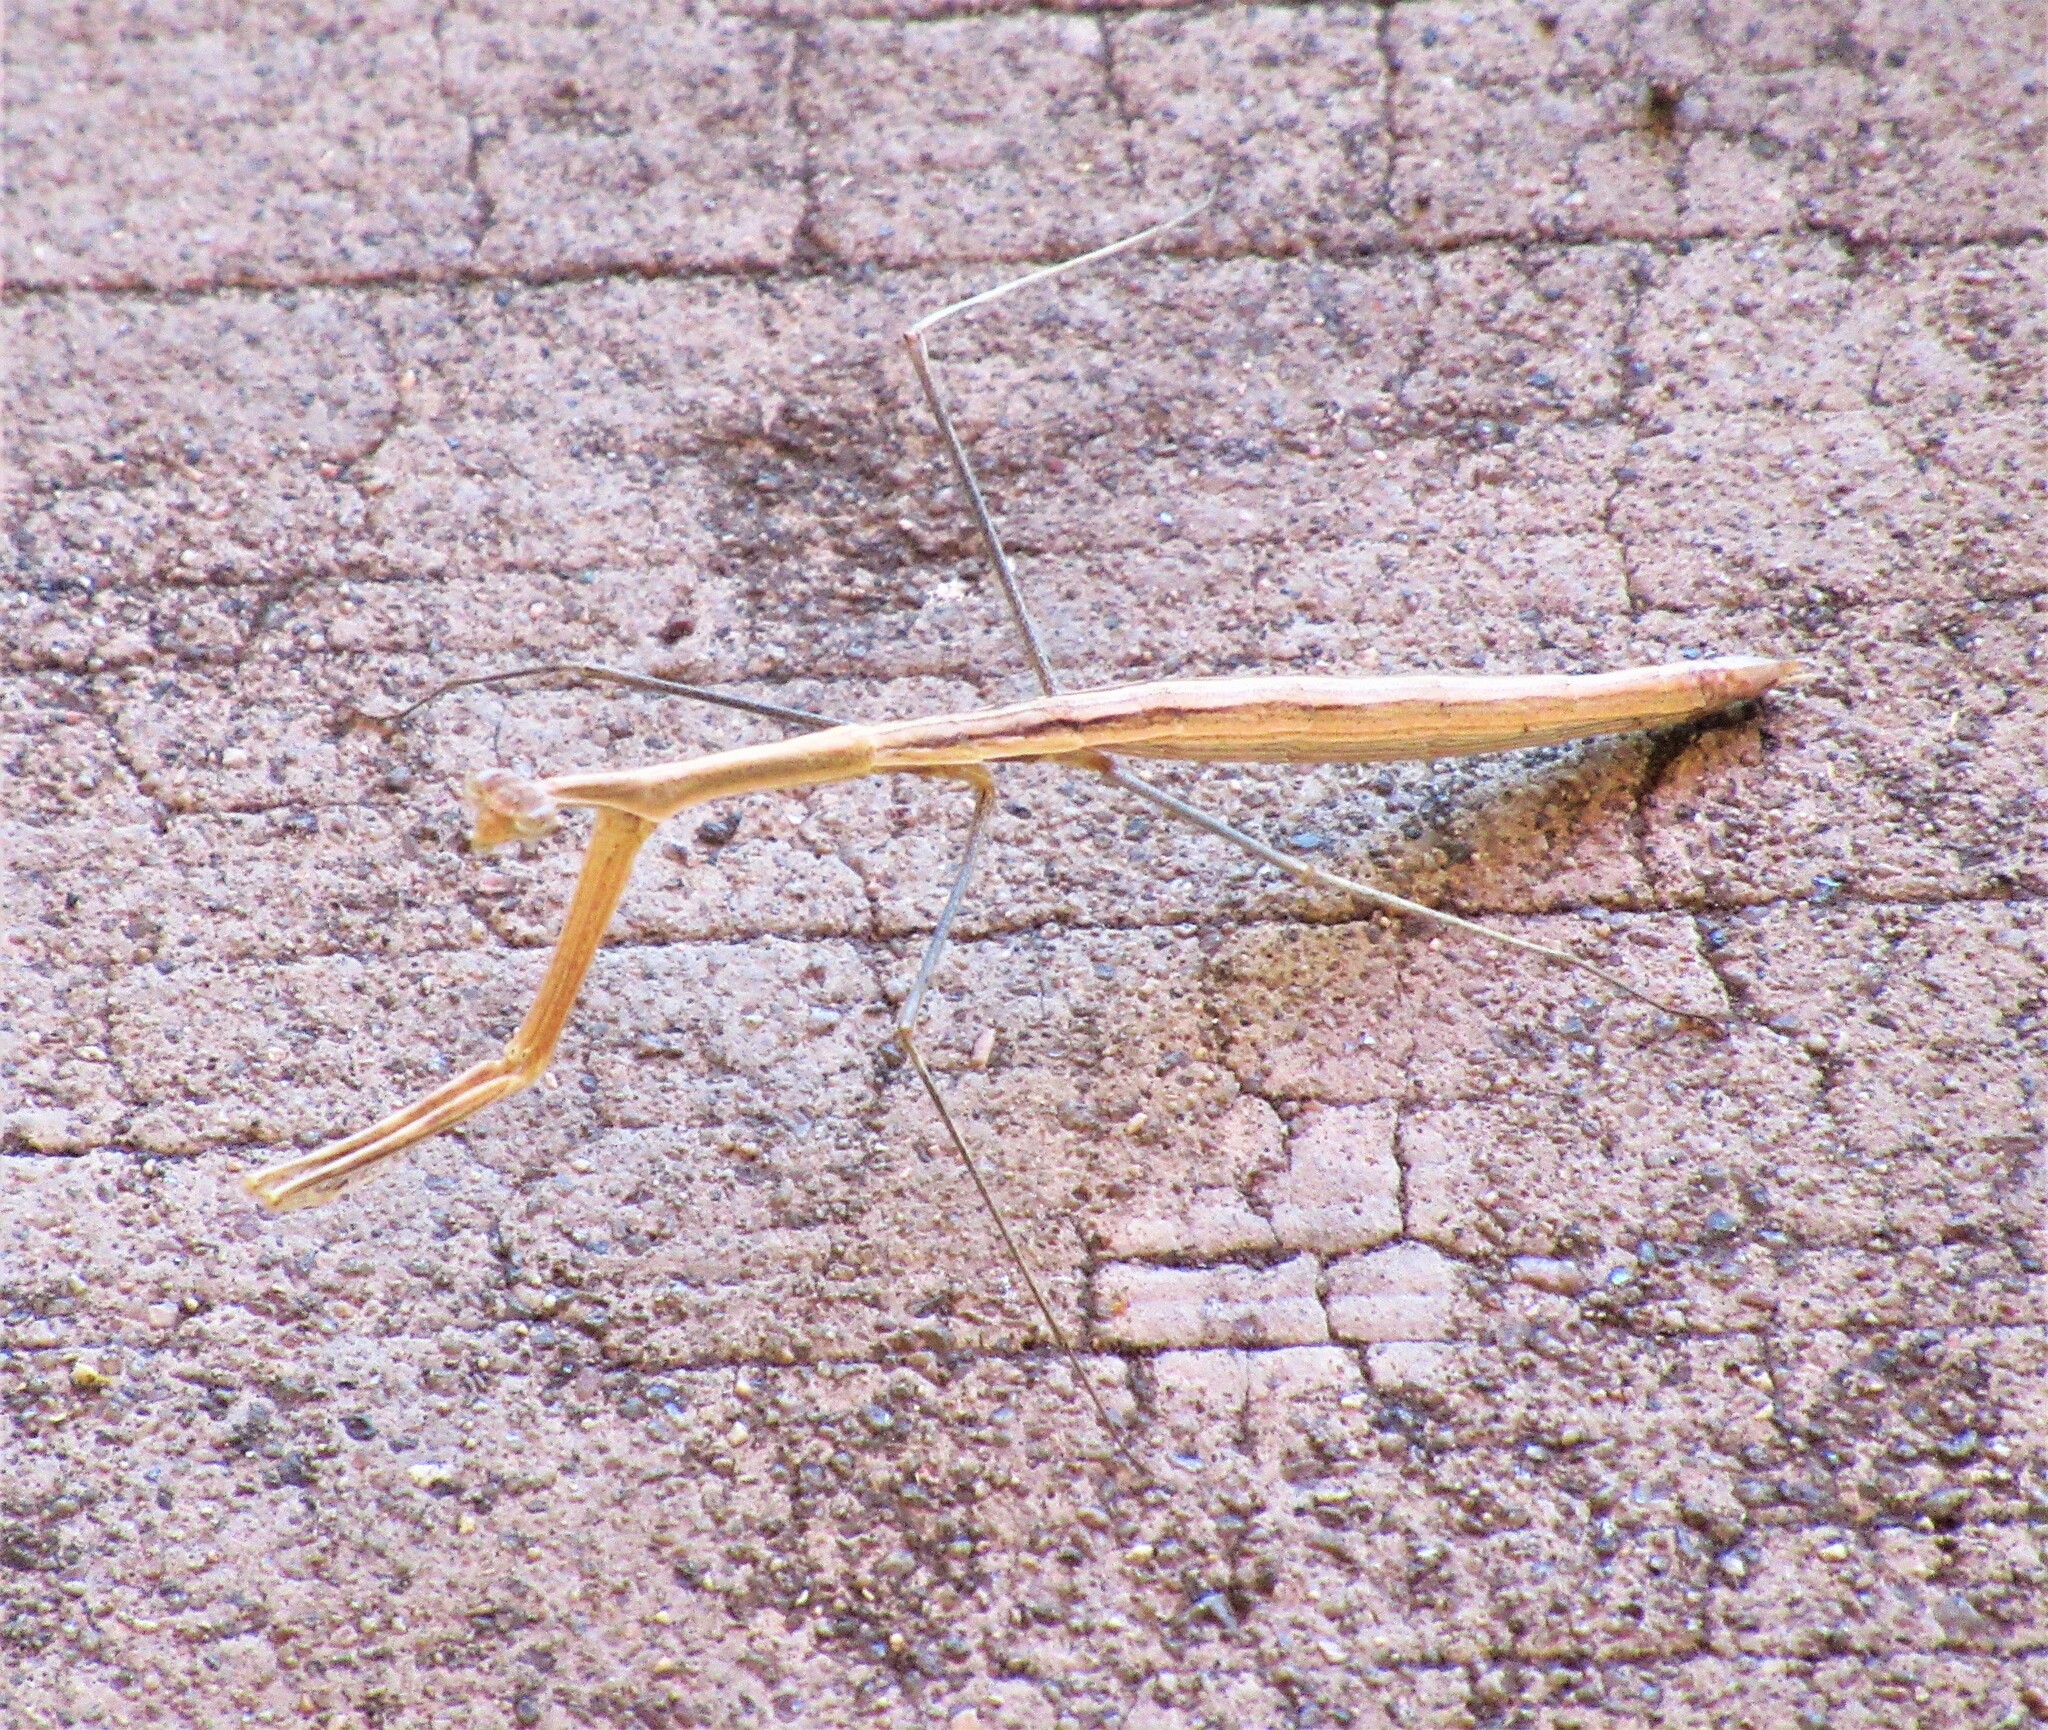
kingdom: Animalia
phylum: Arthropoda
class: Insecta
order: Mantodea
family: Thespidae
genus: Bistanta
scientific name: Bistanta herema
